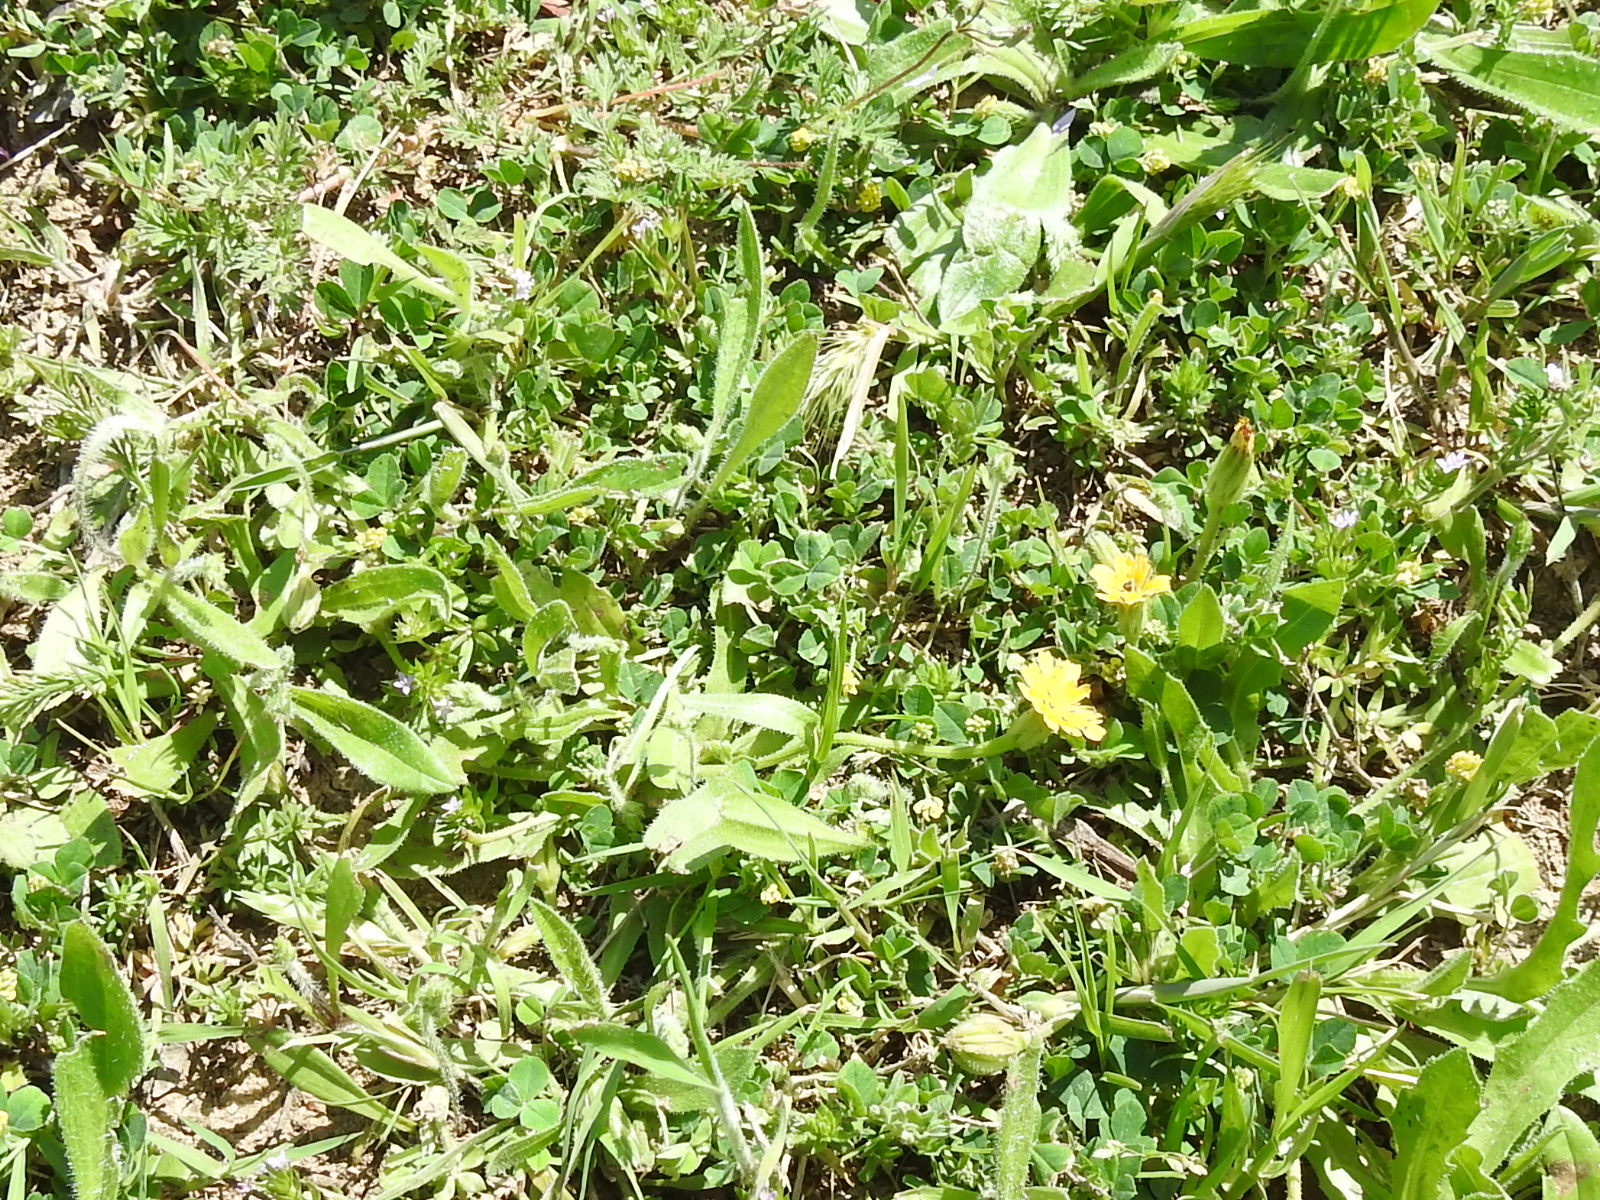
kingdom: Plantae
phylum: Tracheophyta
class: Magnoliopsida
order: Asterales
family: Asteraceae
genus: Hedypnois
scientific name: Hedypnois rhagadioloides
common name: Cretan weed
